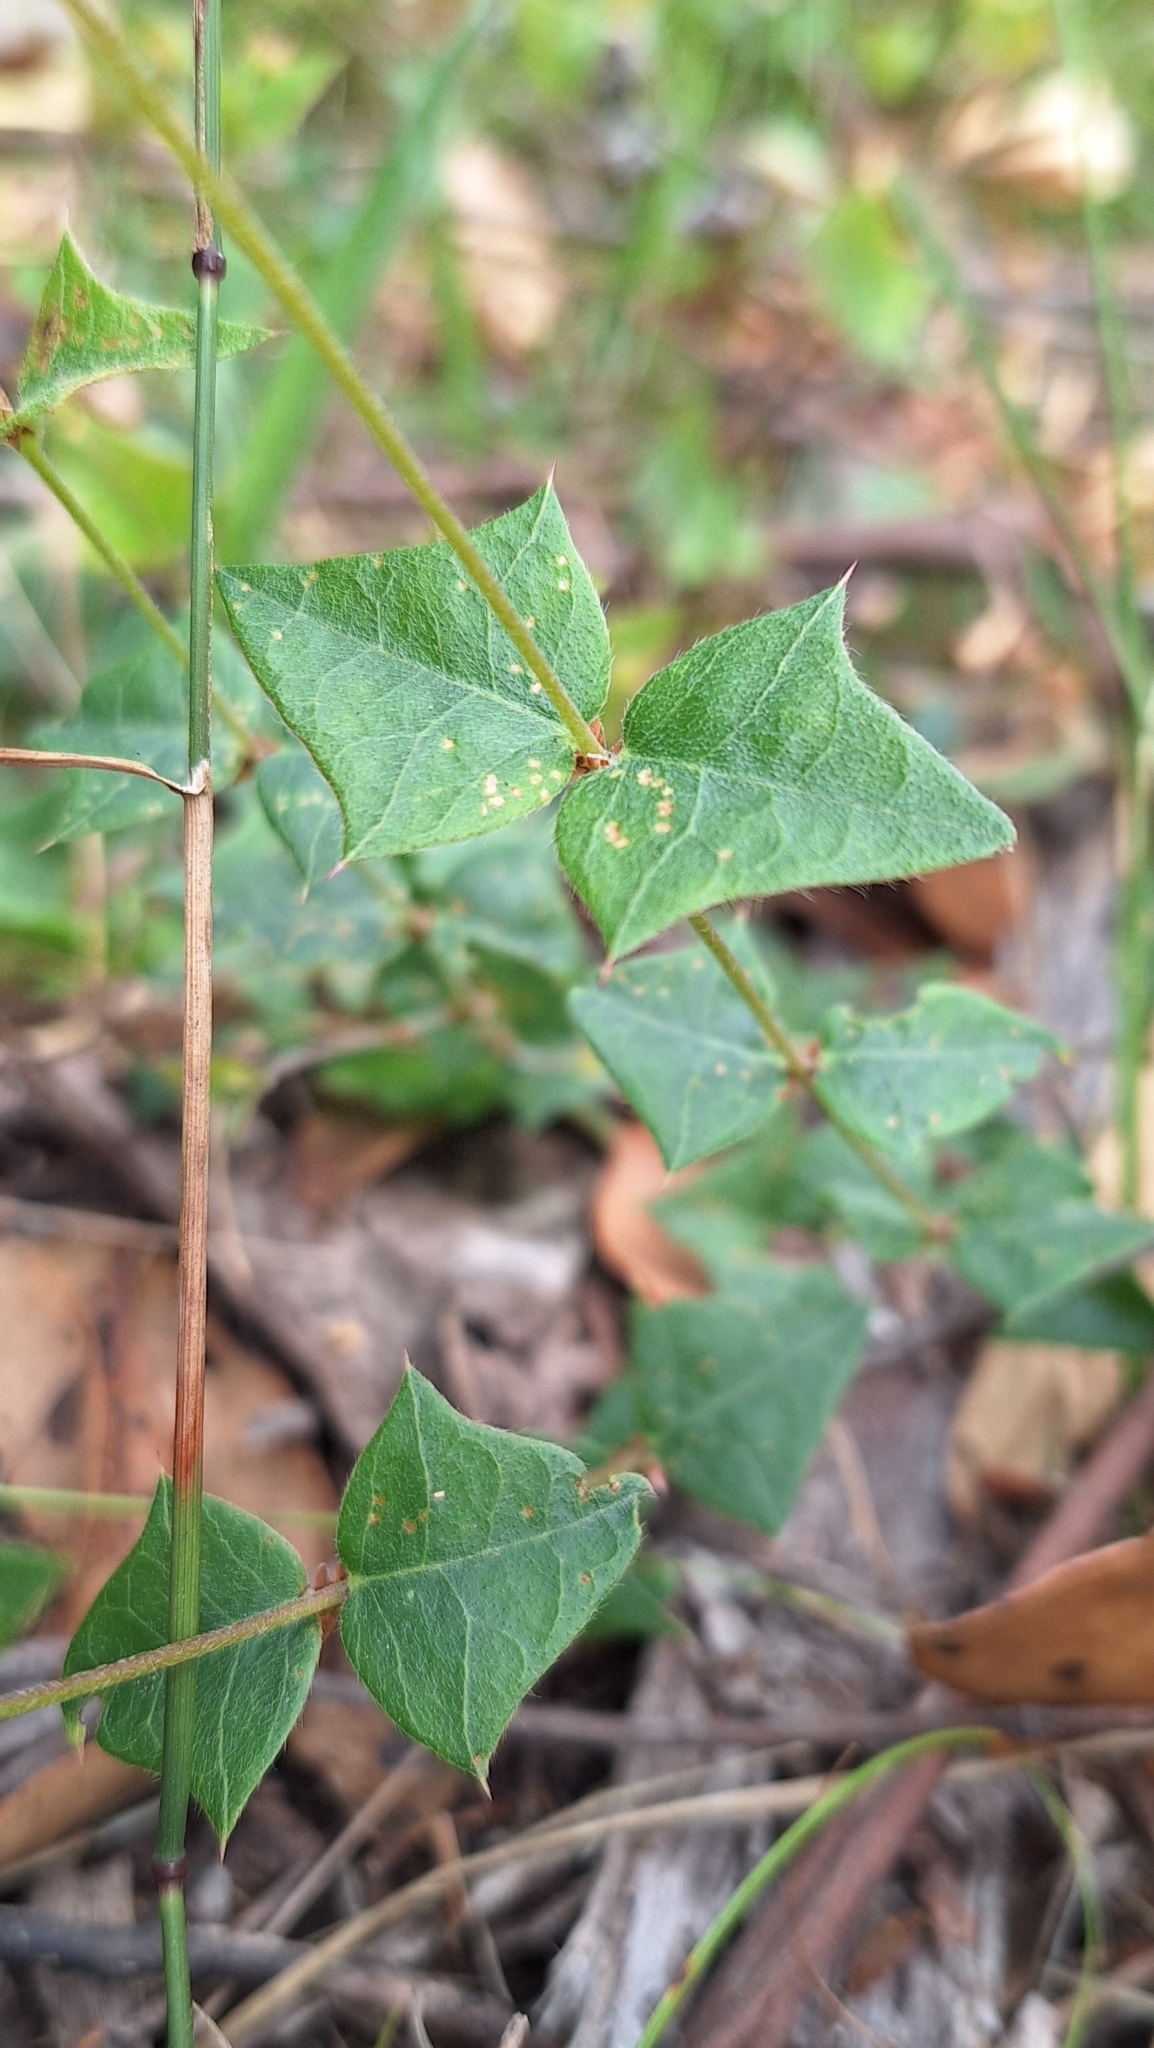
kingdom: Plantae
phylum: Tracheophyta
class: Magnoliopsida
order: Fabales
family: Fabaceae
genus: Platylobium
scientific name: Platylobium obtusangulum
